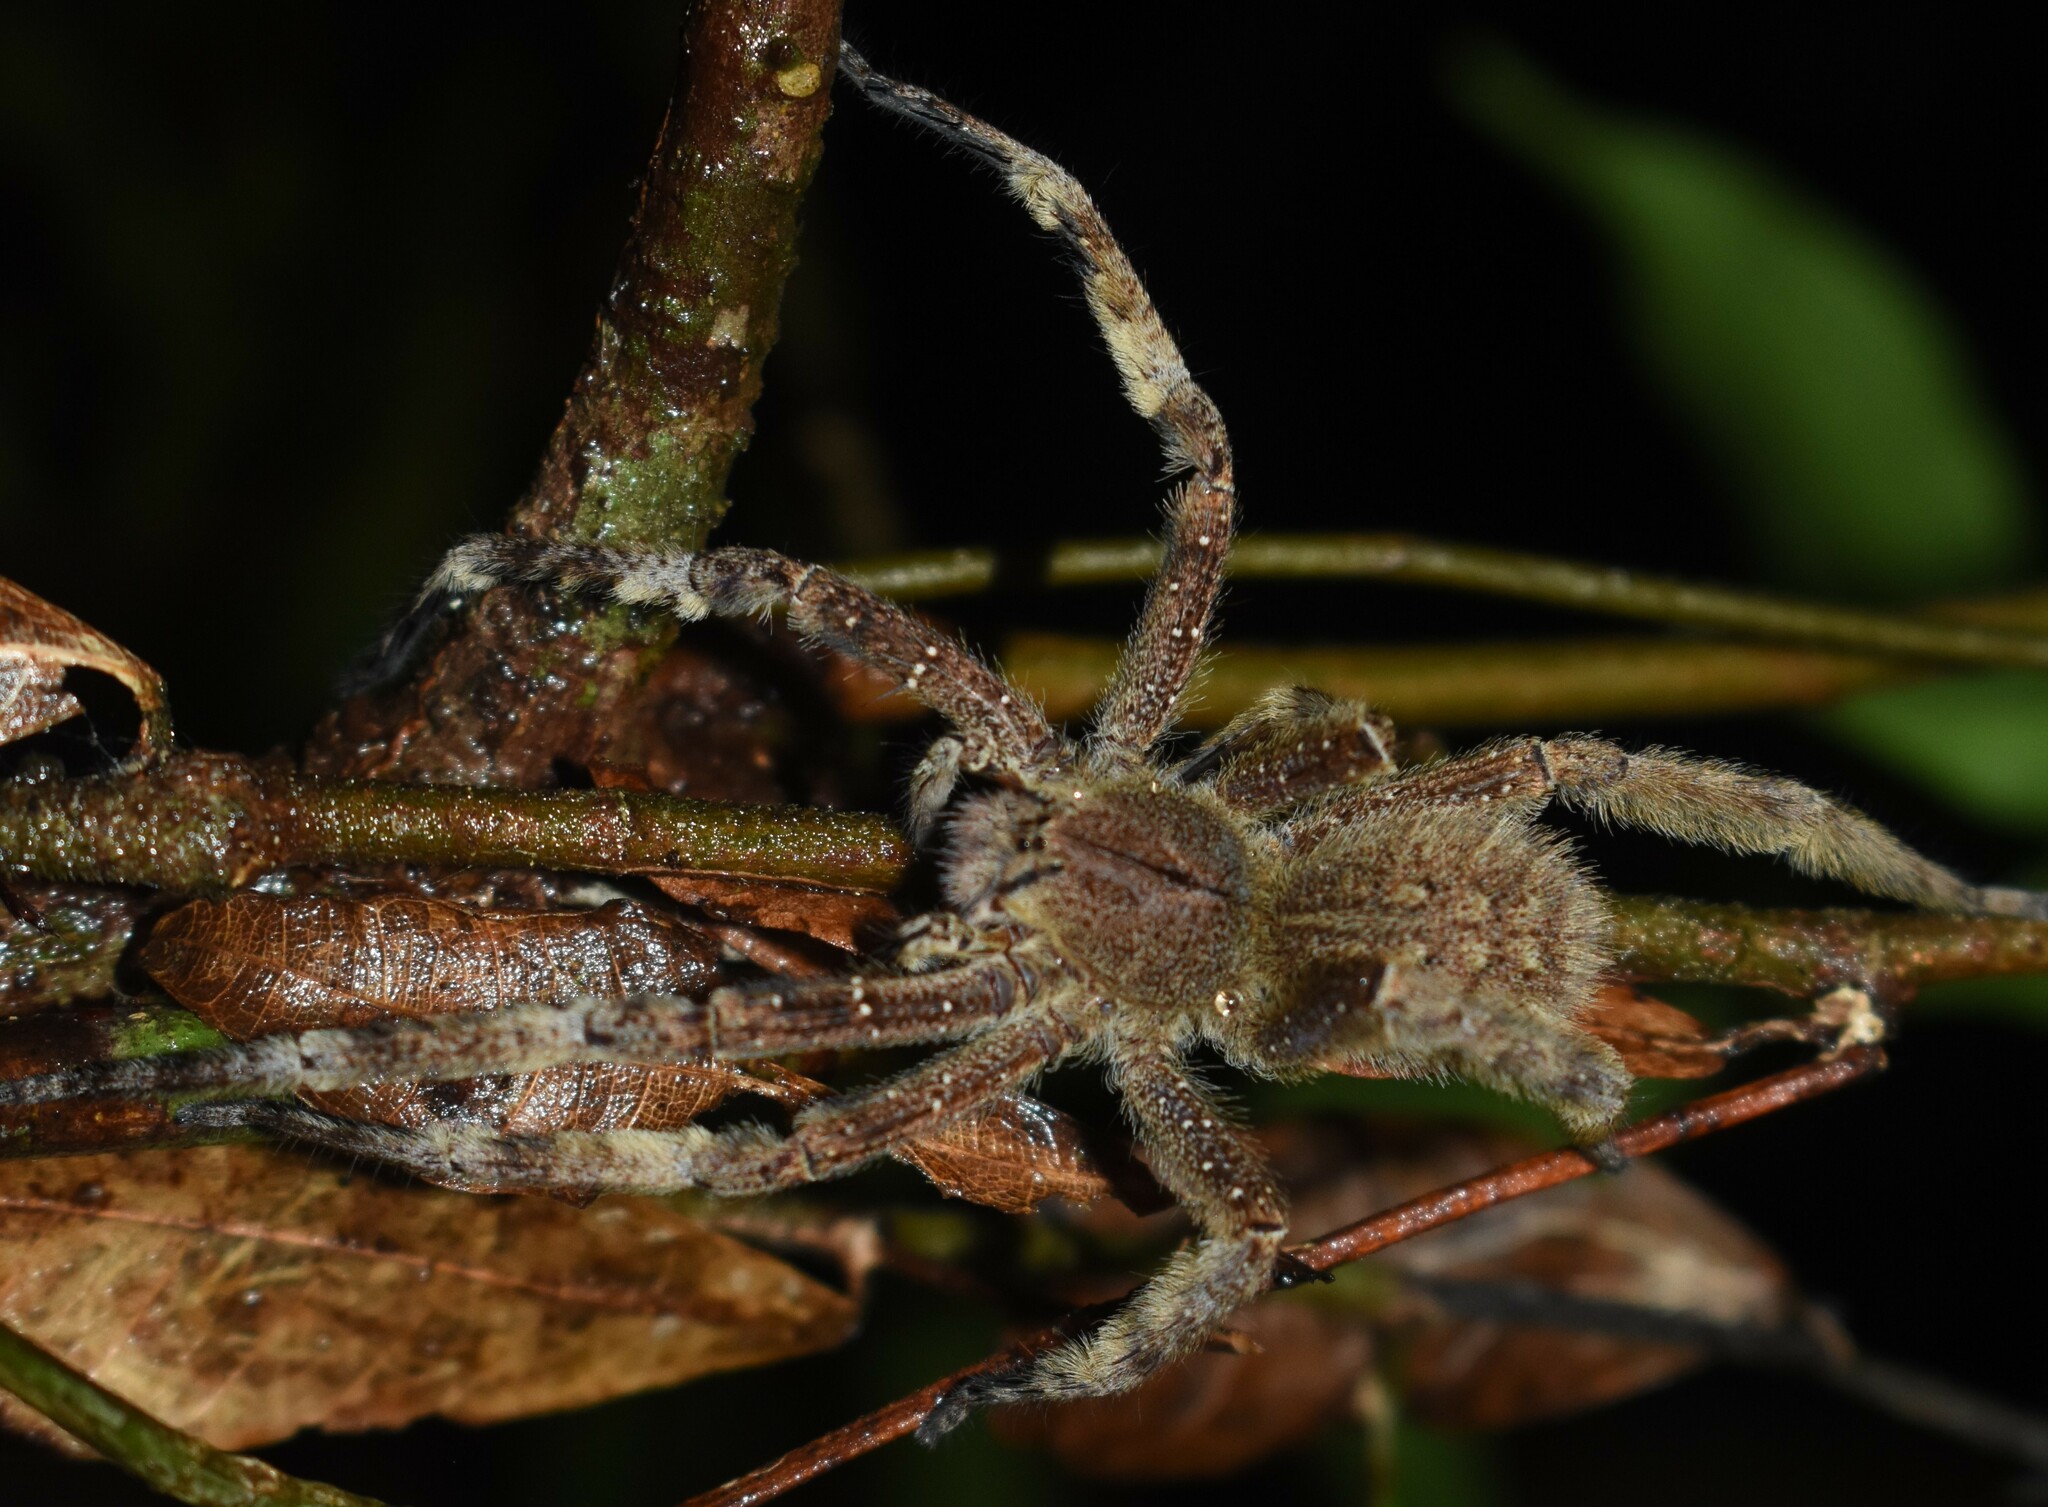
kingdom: Animalia
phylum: Arthropoda
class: Arachnida
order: Araneae
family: Ctenidae
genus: Phoneutria
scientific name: Phoneutria fera
